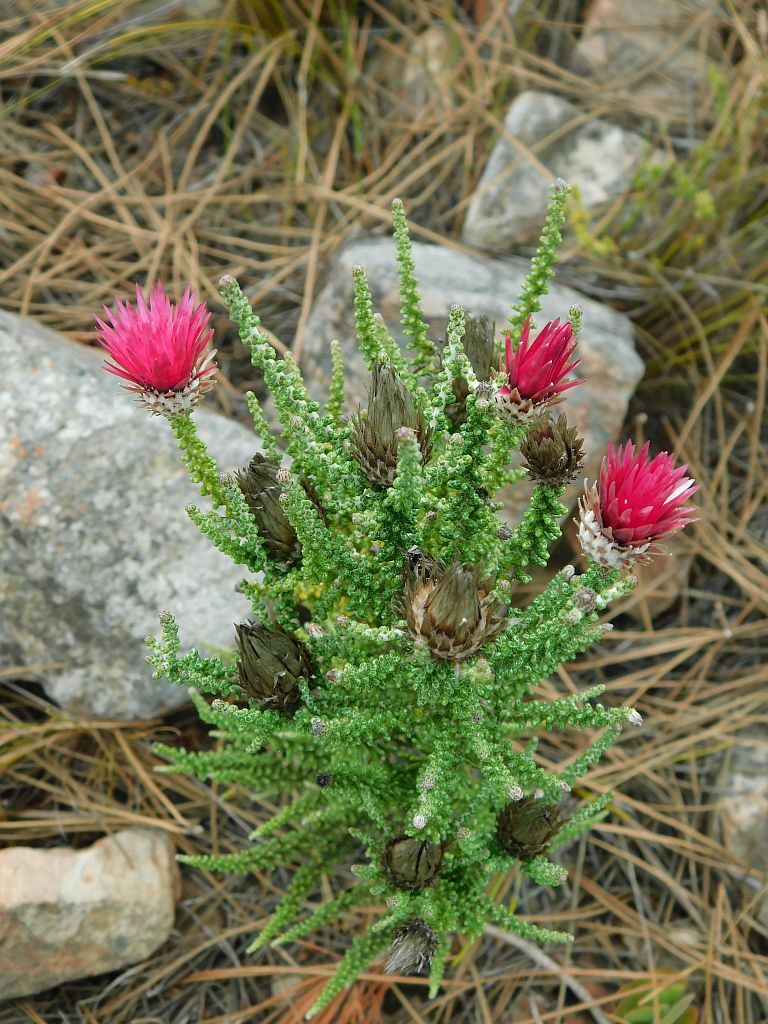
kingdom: Plantae
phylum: Tracheophyta
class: Magnoliopsida
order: Asterales
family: Asteraceae
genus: Phaenocoma
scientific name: Phaenocoma prolifera
